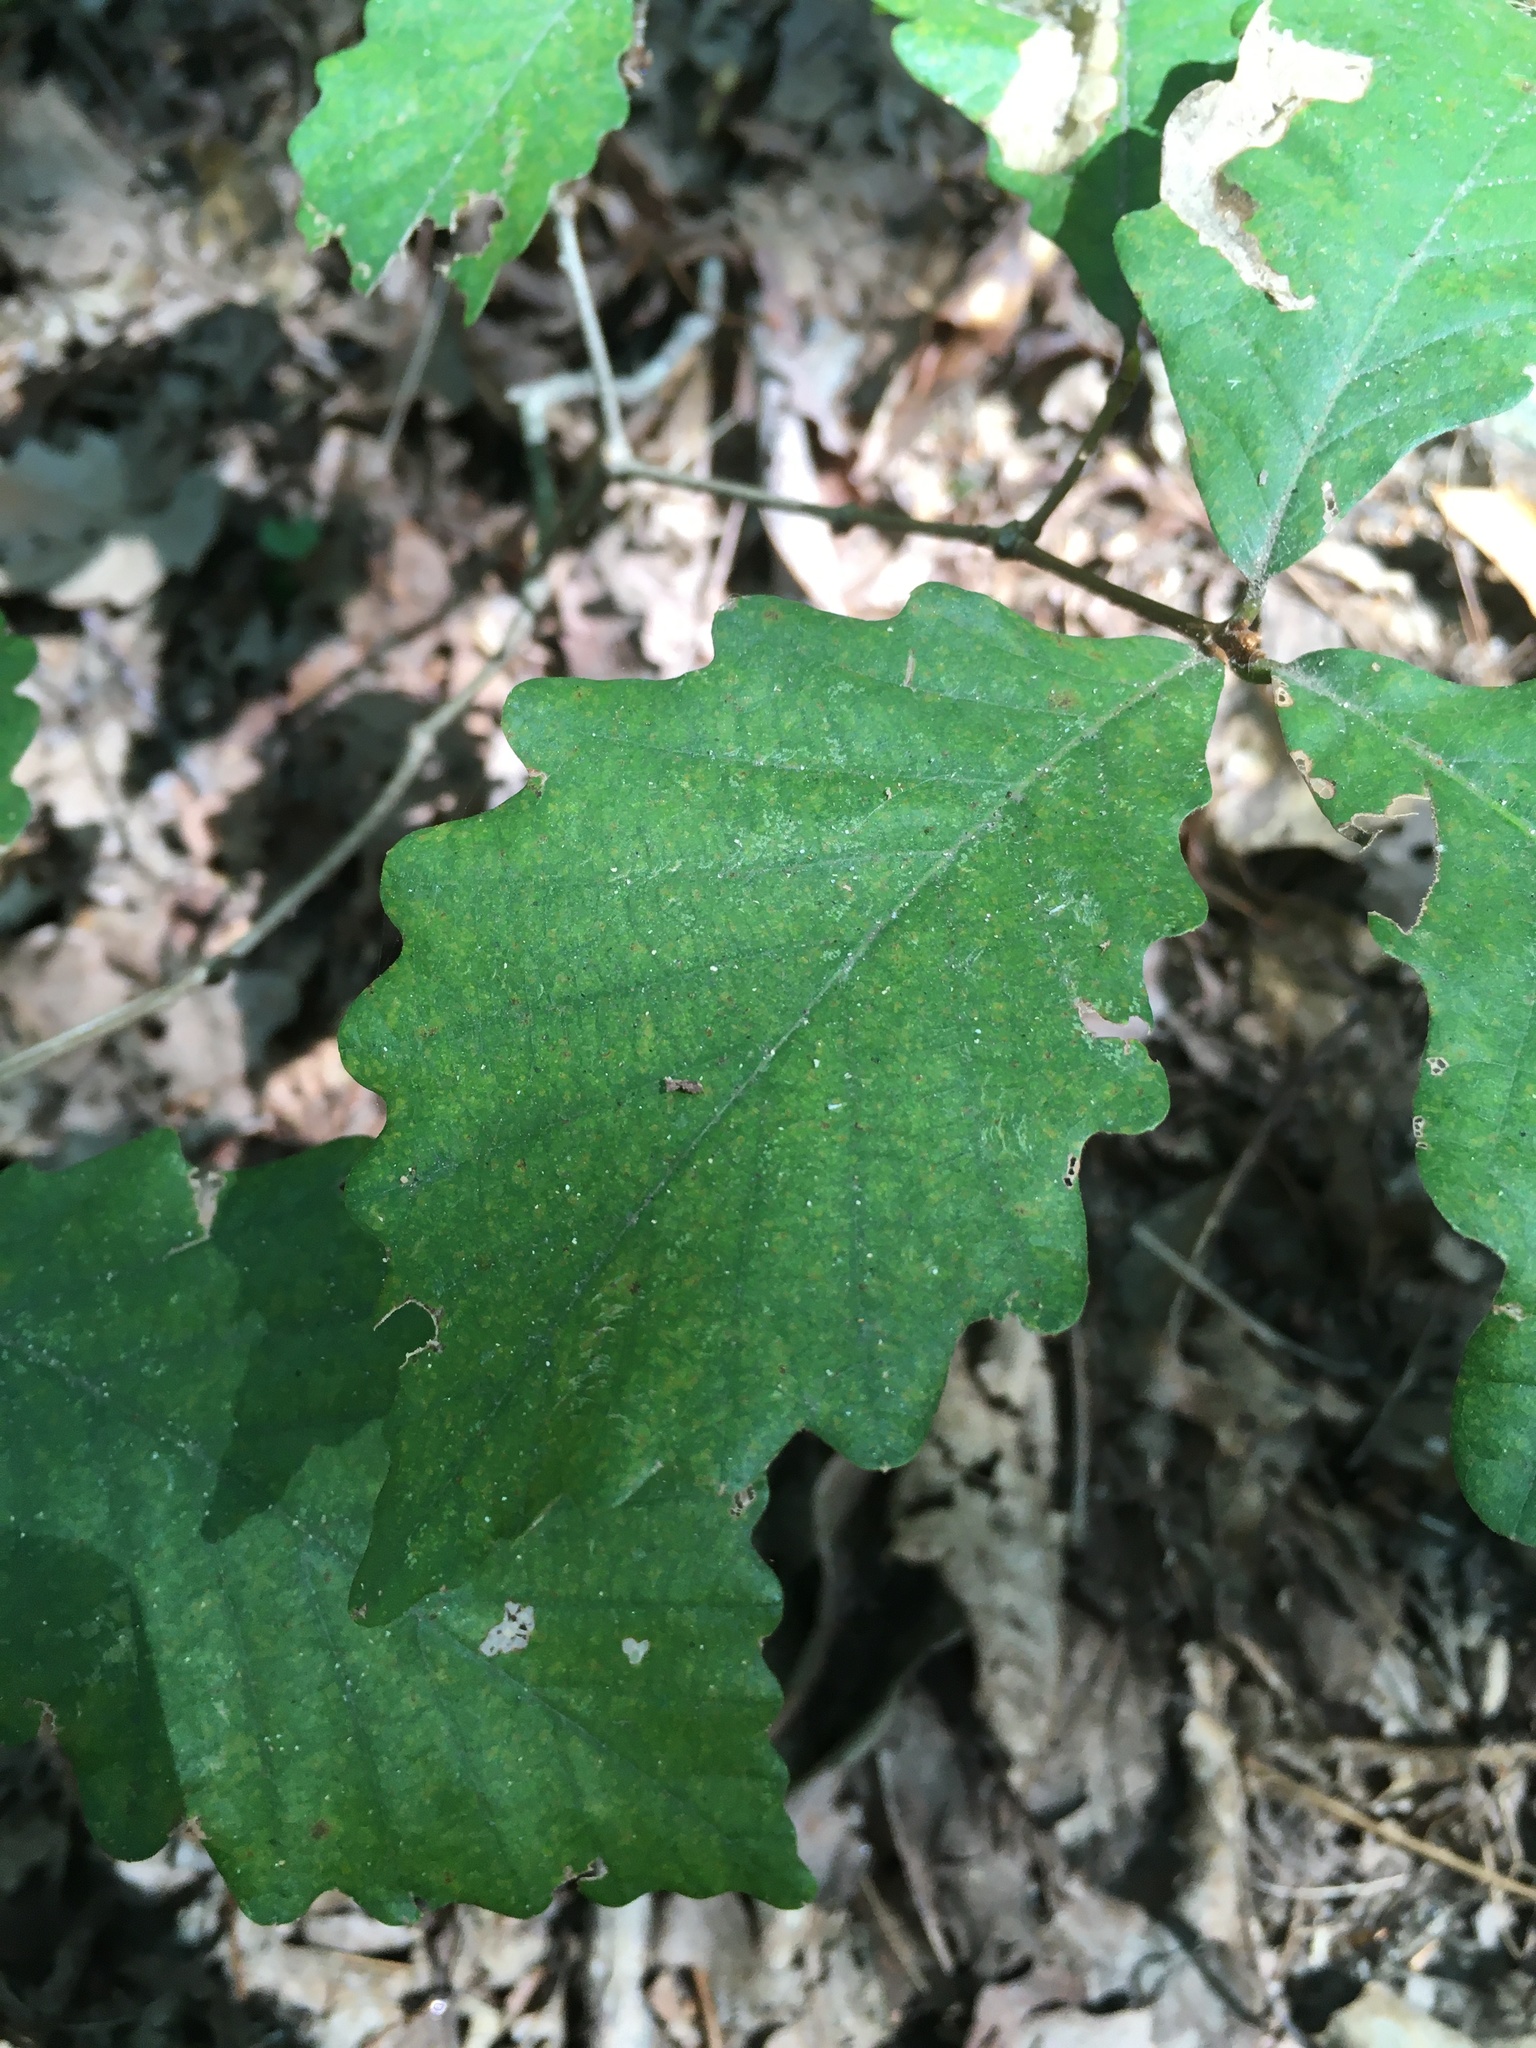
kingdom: Plantae
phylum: Tracheophyta
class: Magnoliopsida
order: Fagales
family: Fagaceae
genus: Quercus
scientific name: Quercus montana
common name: Chestnut oak
